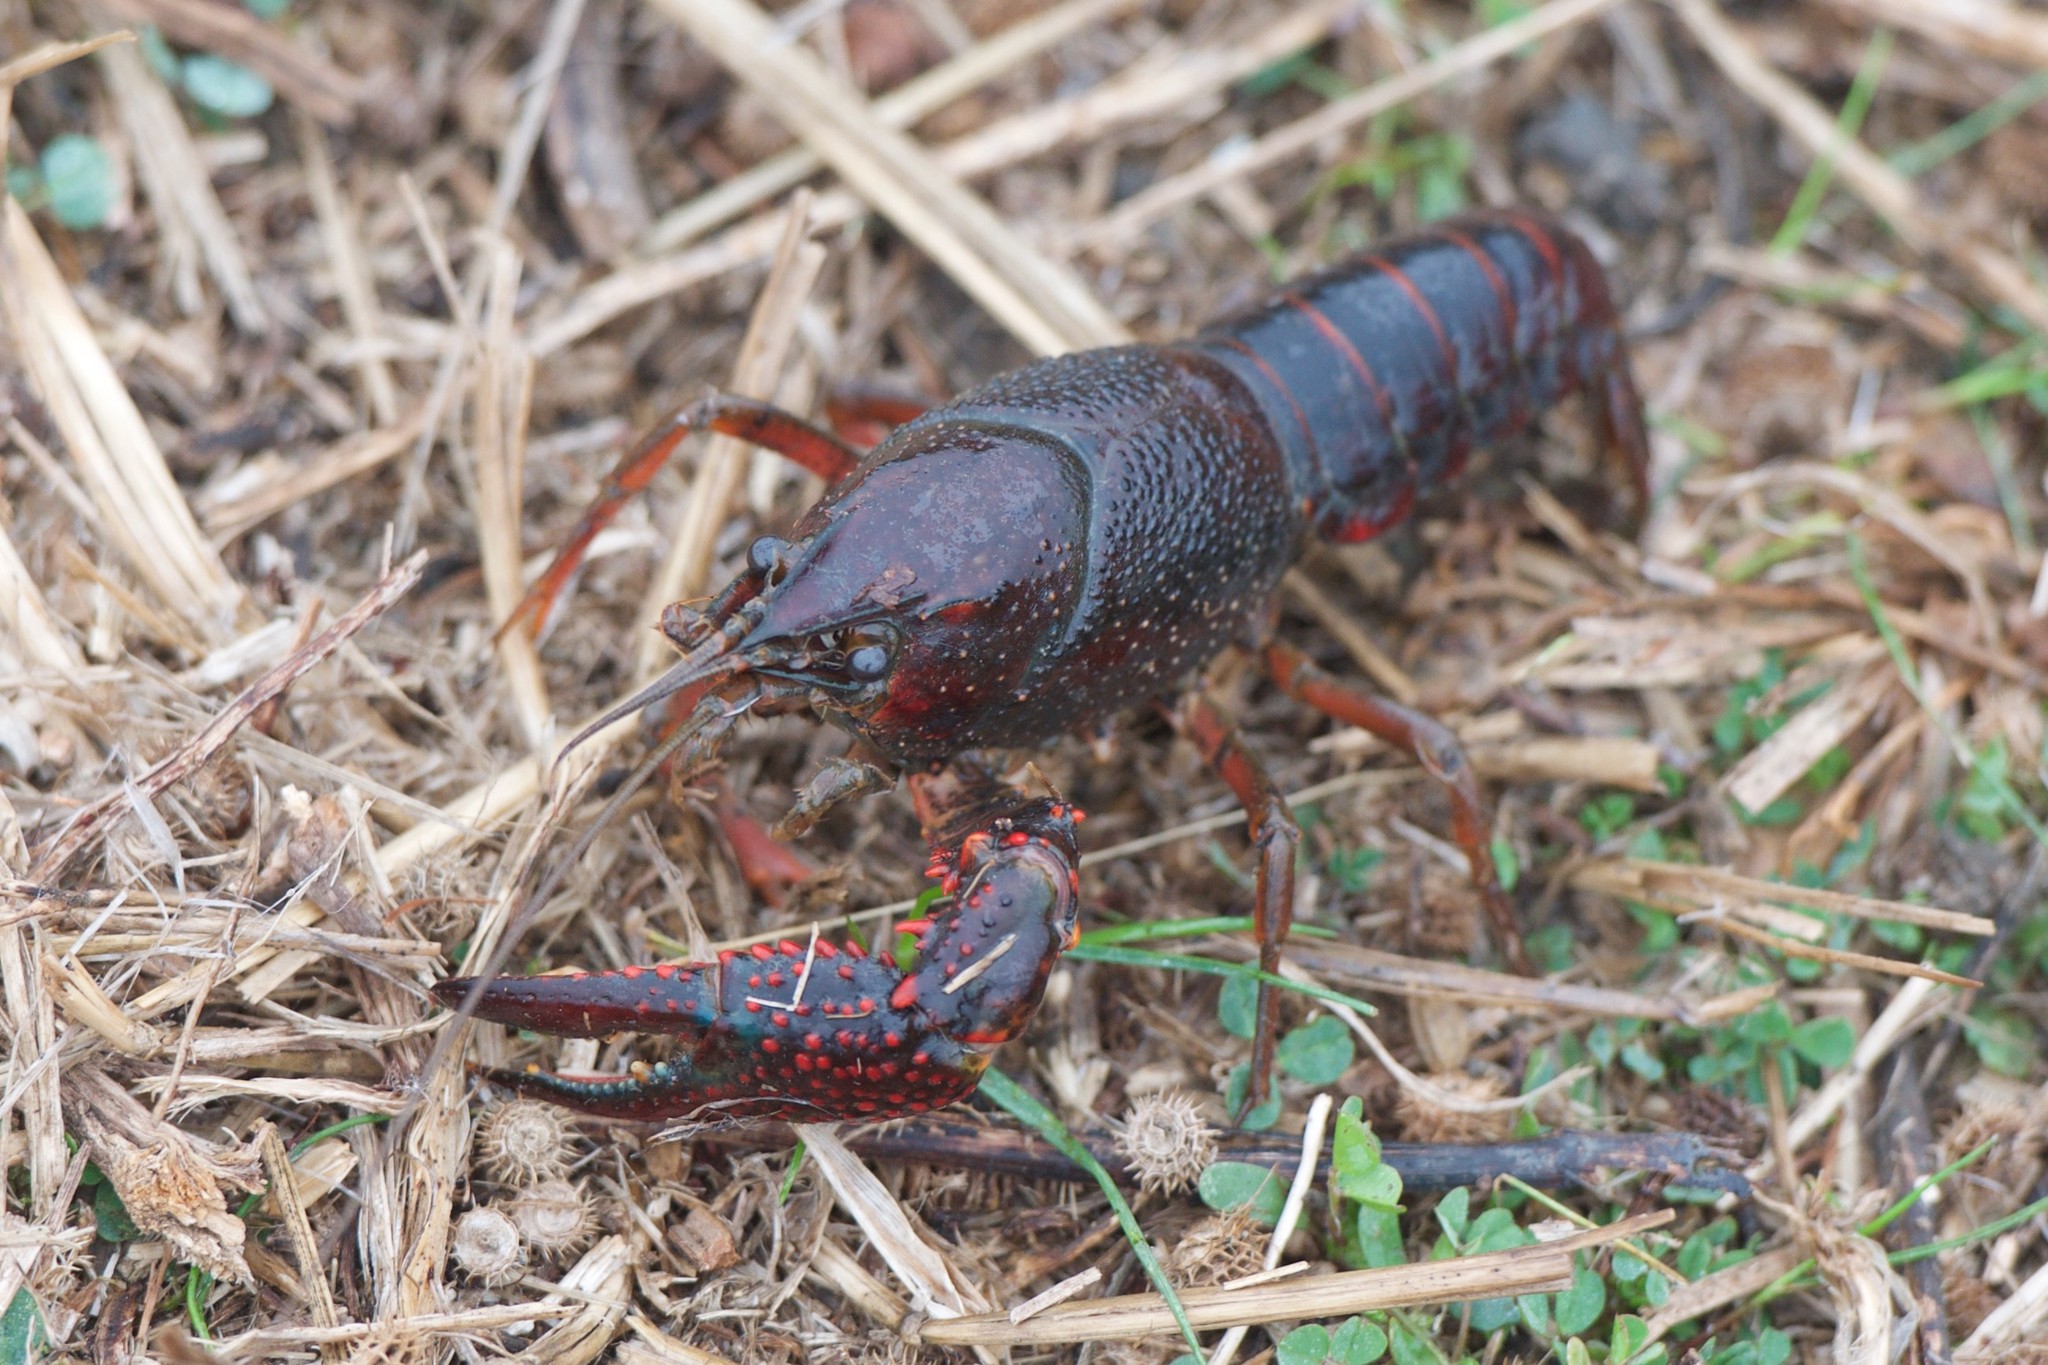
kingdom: Animalia
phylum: Arthropoda
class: Malacostraca
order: Decapoda
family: Cambaridae
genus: Procambarus
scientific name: Procambarus clarkii
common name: Red swamp crayfish
